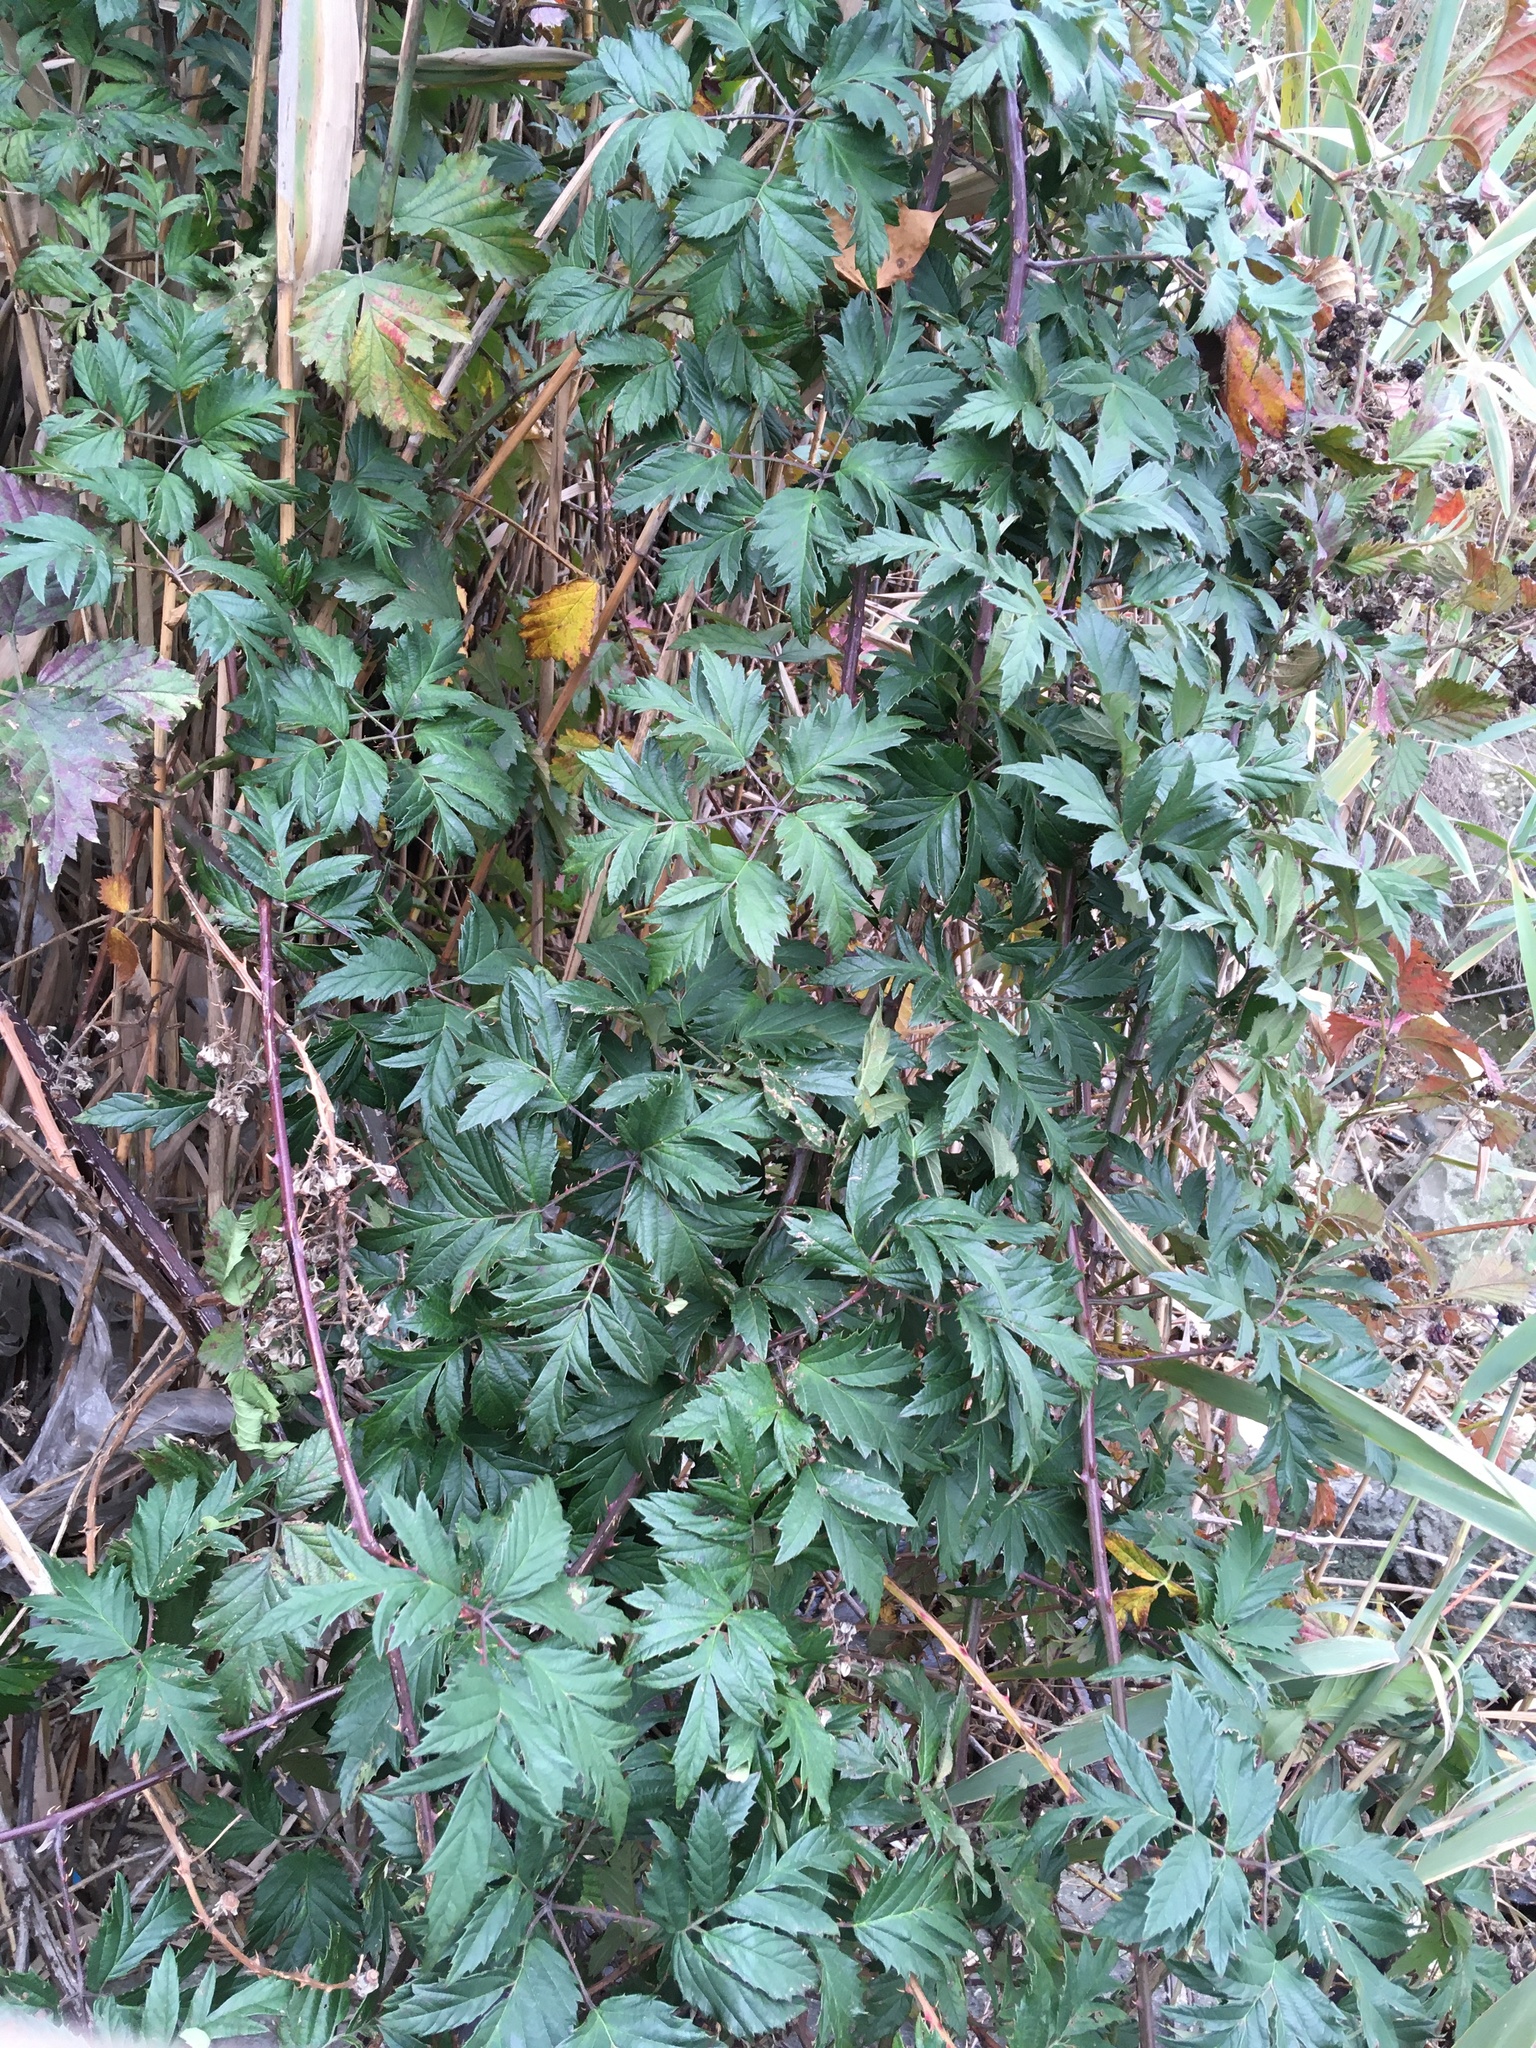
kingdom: Plantae
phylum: Tracheophyta
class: Magnoliopsida
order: Rosales
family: Rosaceae
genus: Rubus
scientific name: Rubus laciniatus
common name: Evergreen blackberry
